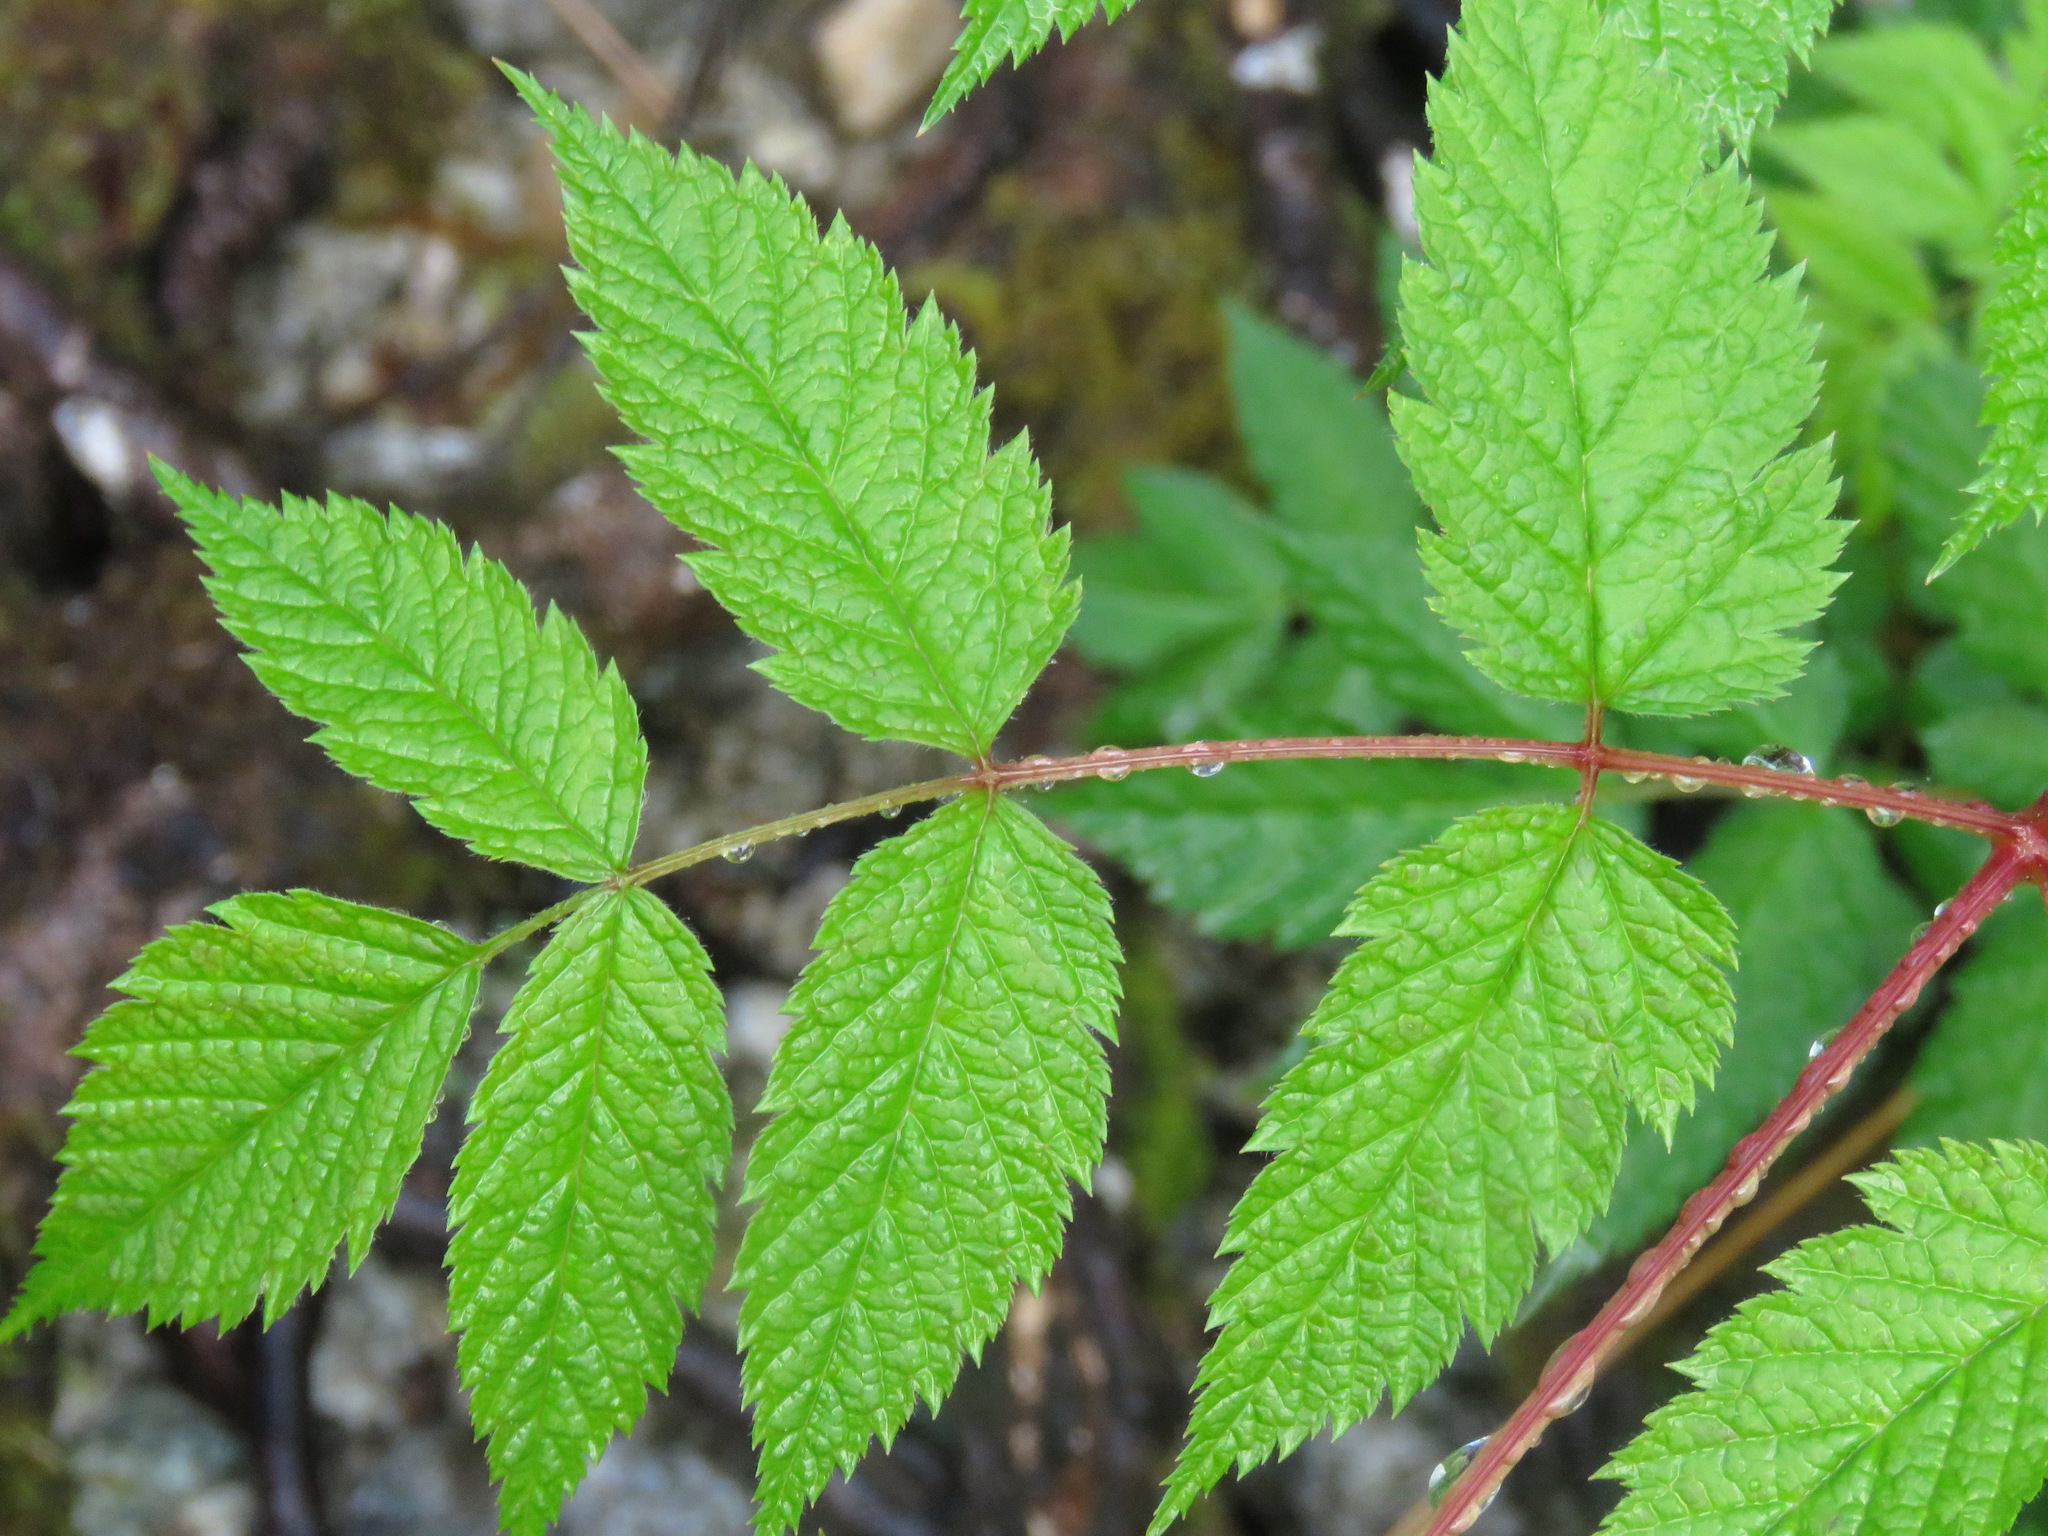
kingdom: Plantae
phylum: Tracheophyta
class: Magnoliopsida
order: Rosales
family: Rosaceae
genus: Aruncus
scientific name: Aruncus dioicus
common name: Buck's-beard
